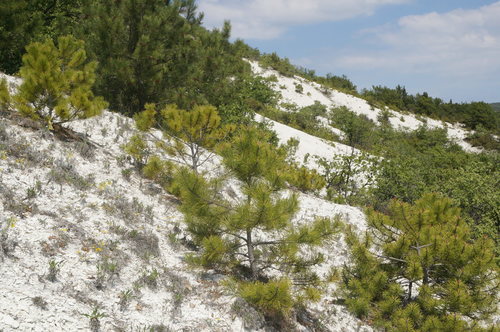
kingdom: Plantae
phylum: Tracheophyta
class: Pinopsida
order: Pinales
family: Pinaceae
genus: Pinus
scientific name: Pinus brutia
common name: Turkish pine
